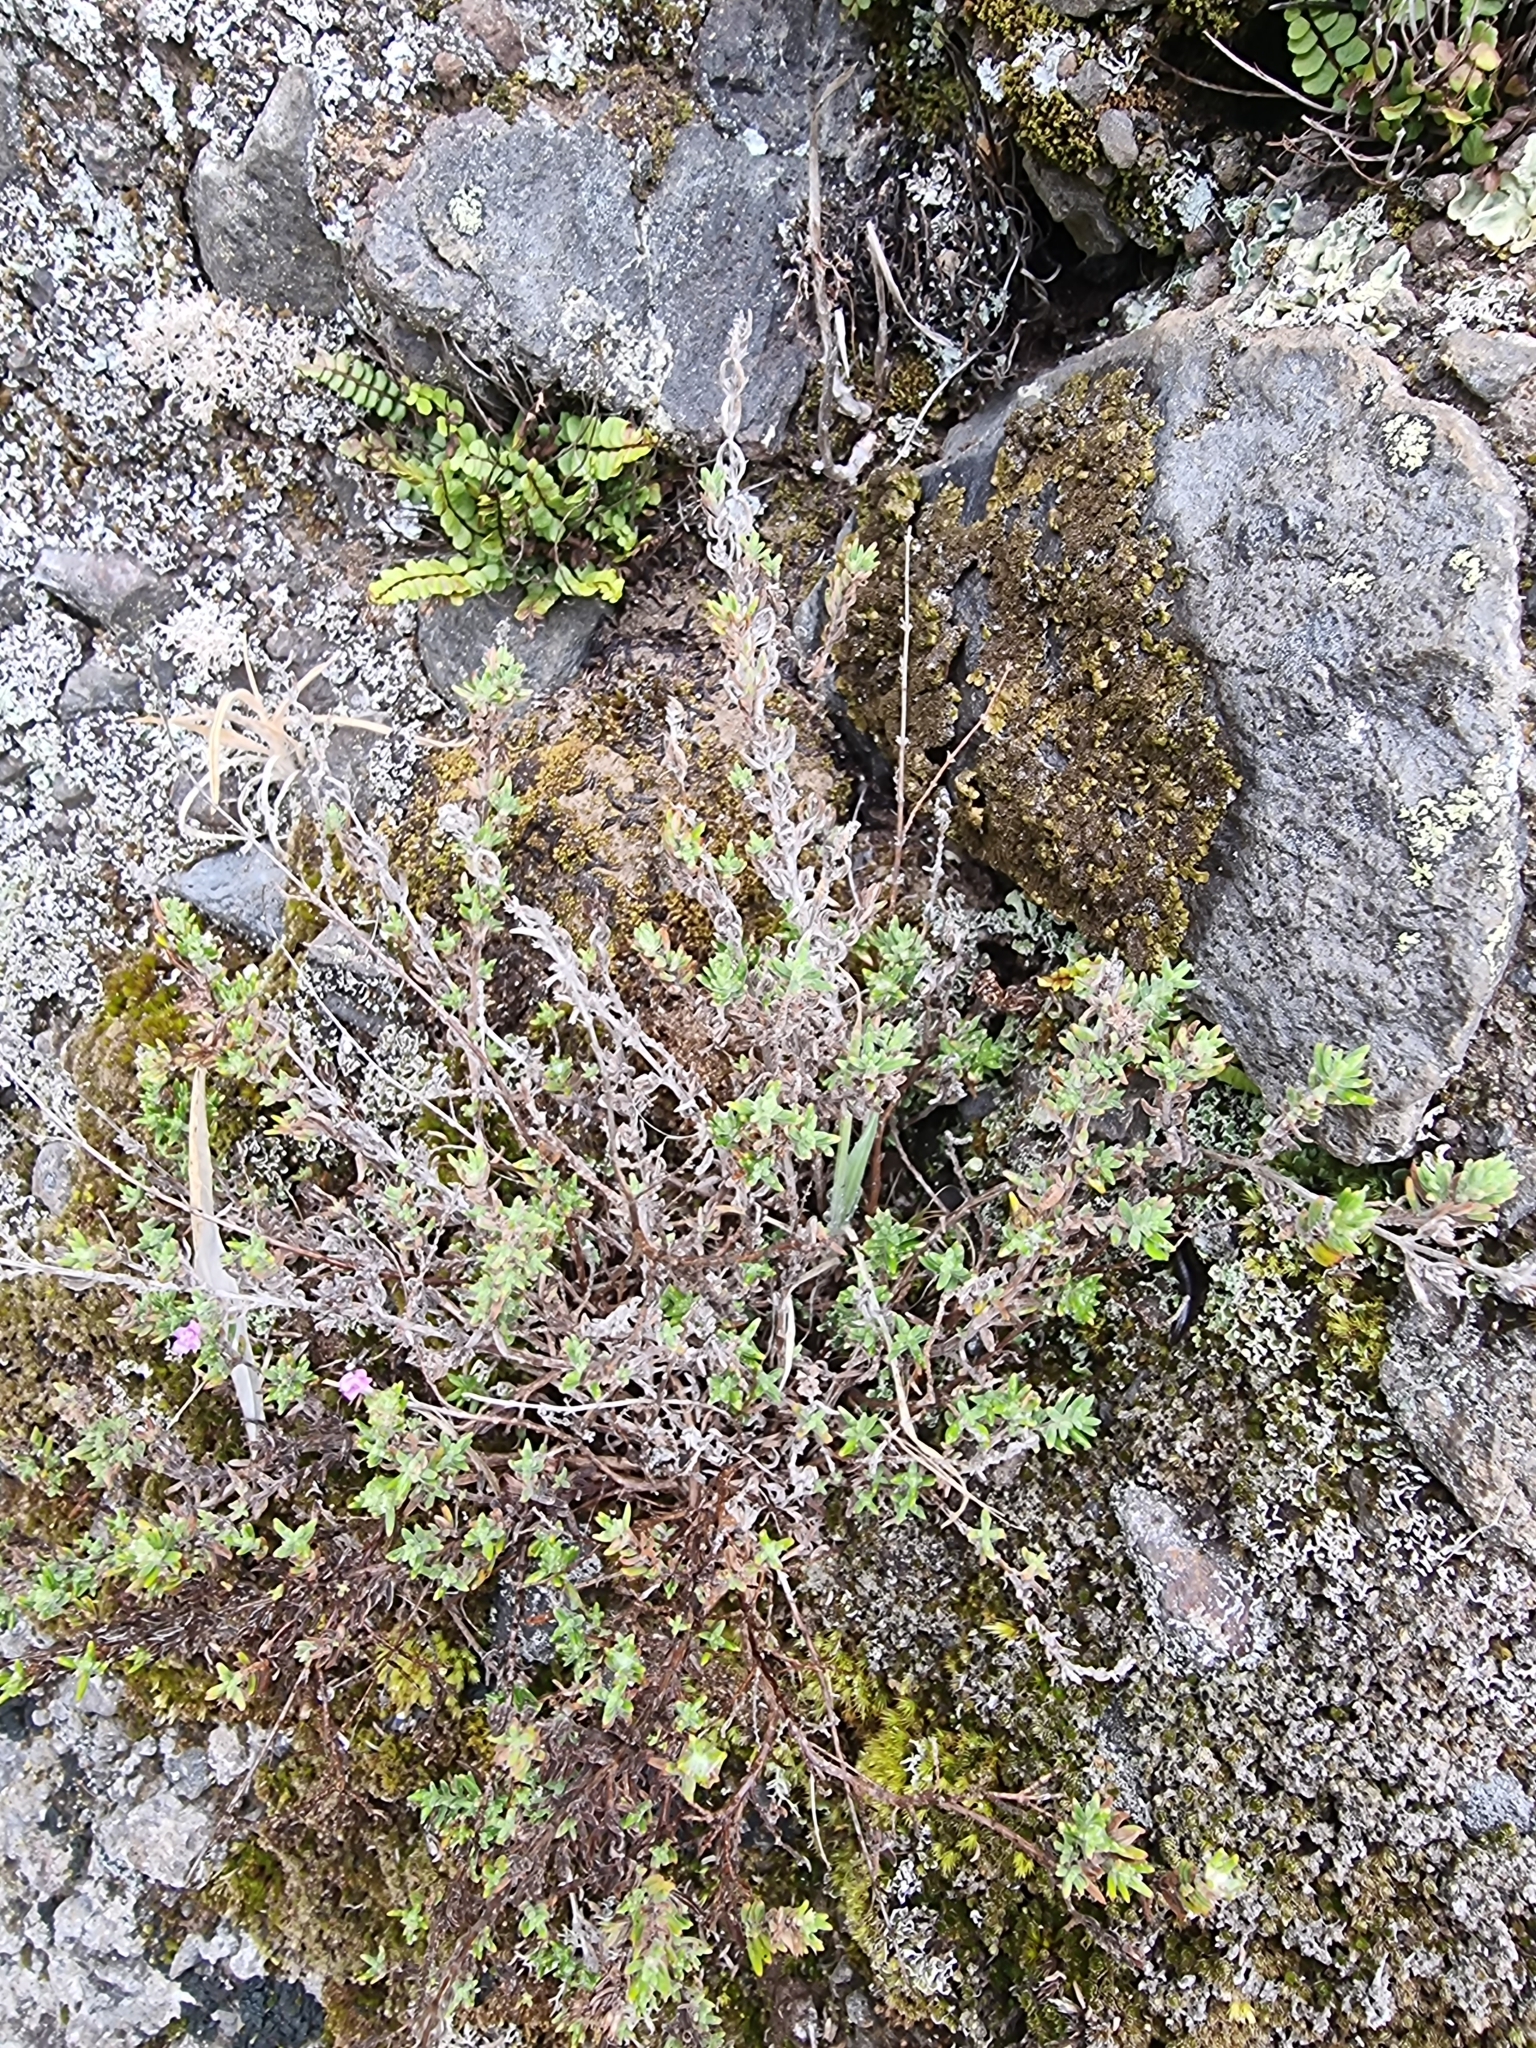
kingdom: Plantae
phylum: Tracheophyta
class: Magnoliopsida
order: Lamiales
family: Lamiaceae
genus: Micromeria
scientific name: Micromeria maderensis
